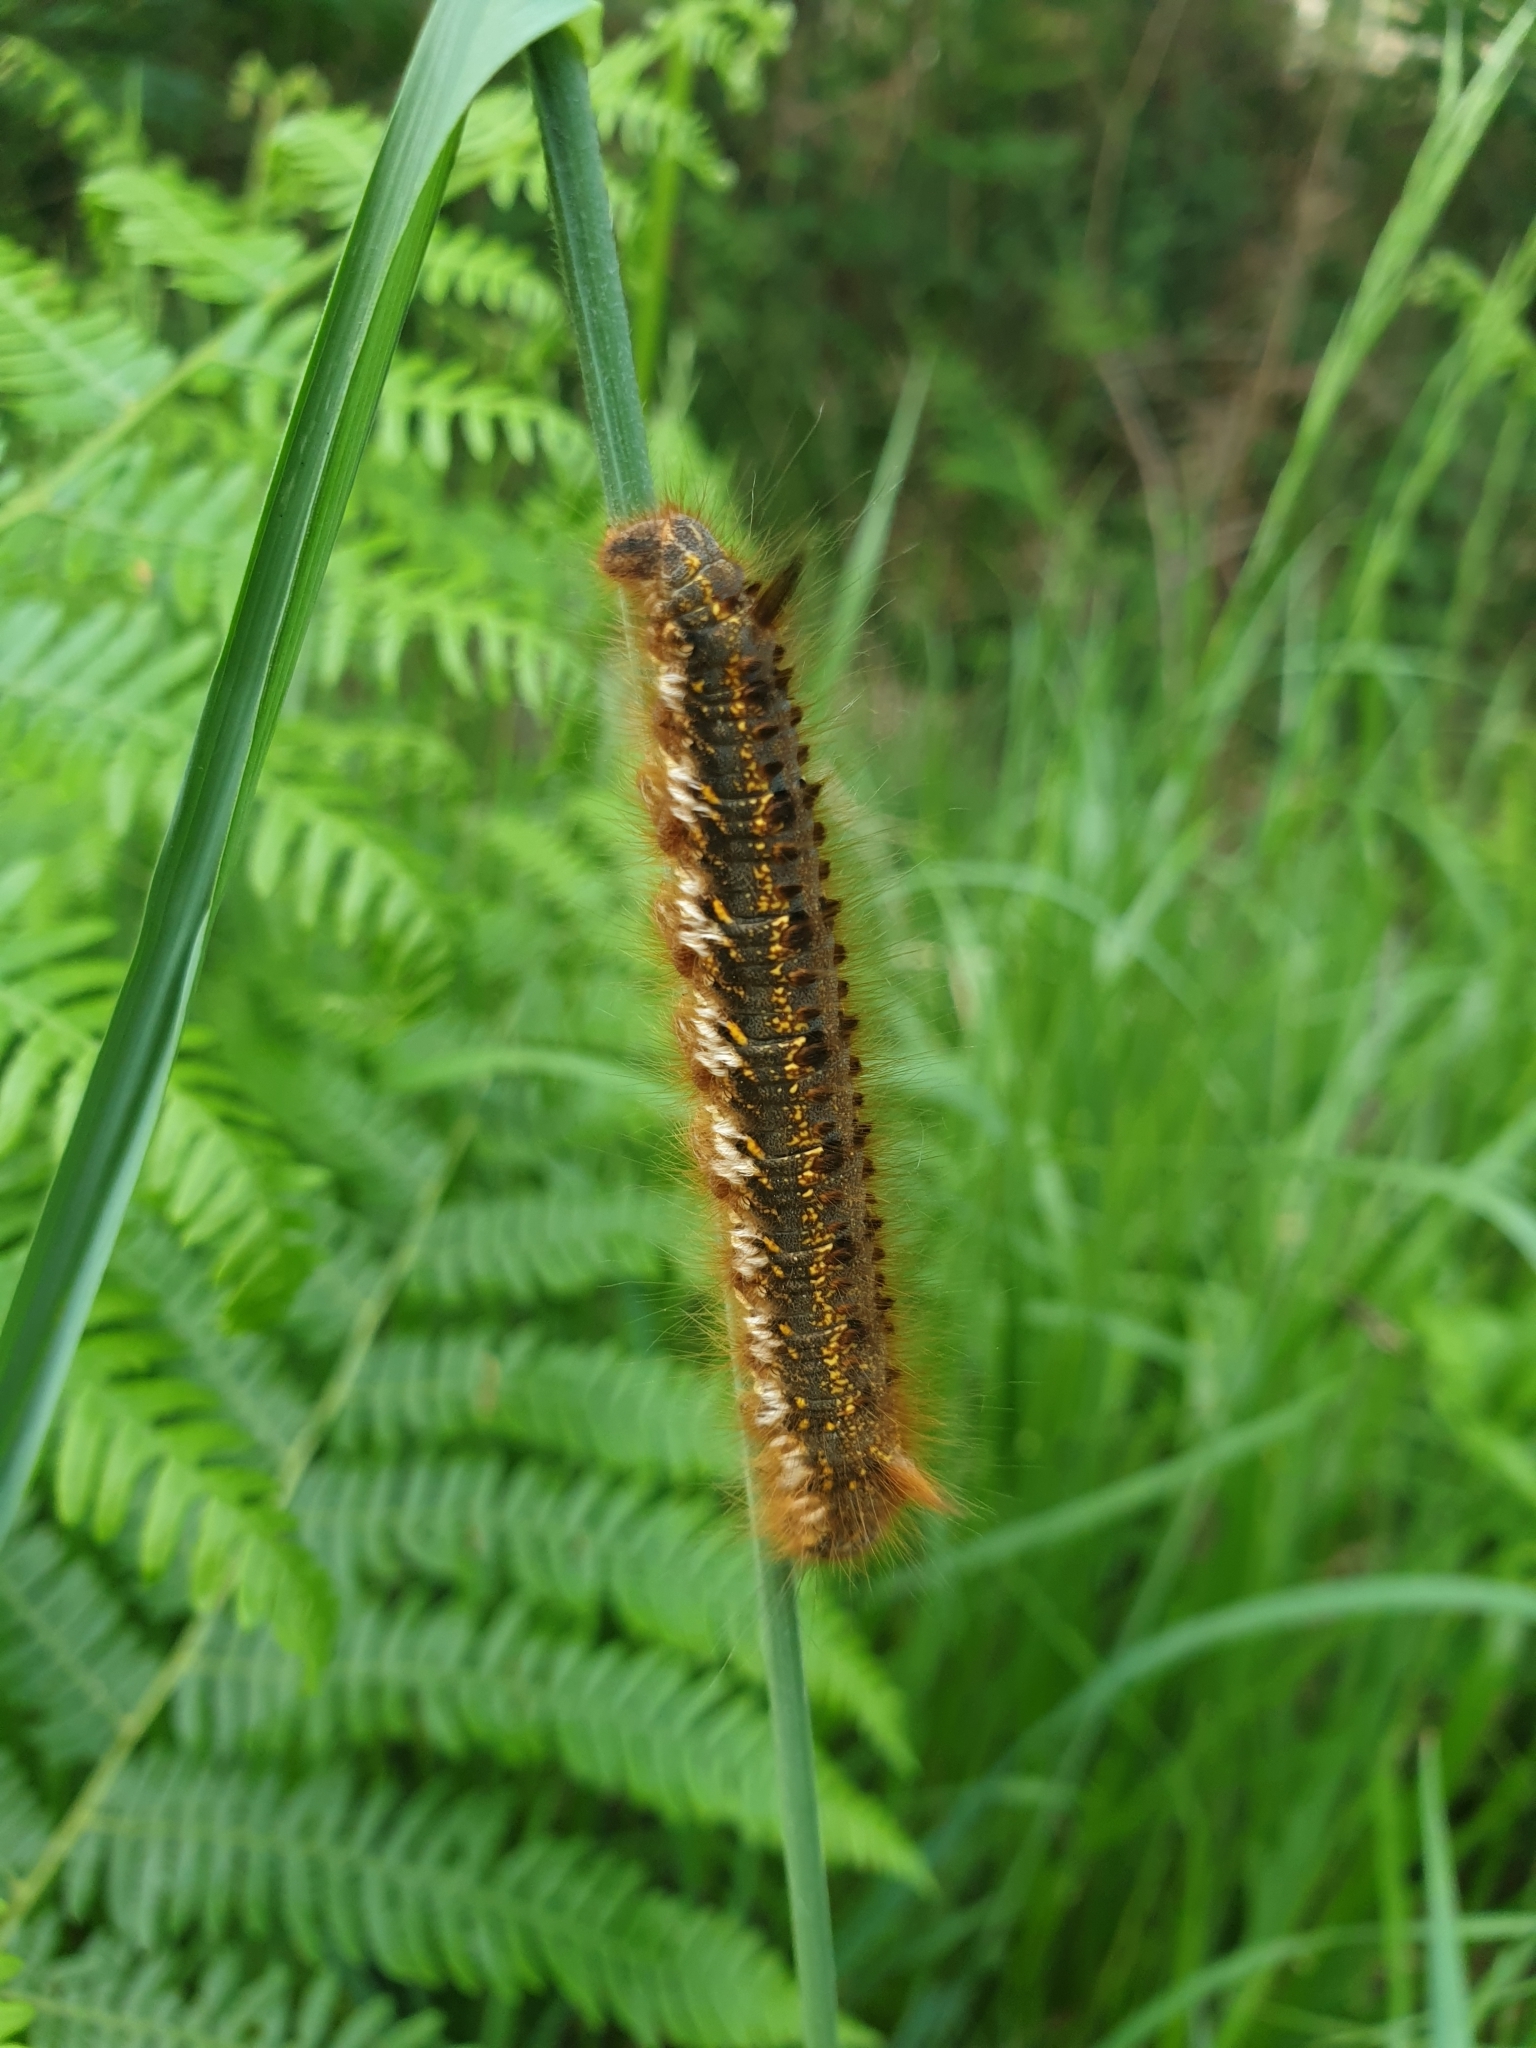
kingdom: Animalia
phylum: Arthropoda
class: Insecta
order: Lepidoptera
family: Lasiocampidae
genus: Euthrix
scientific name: Euthrix potatoria
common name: Drinker
